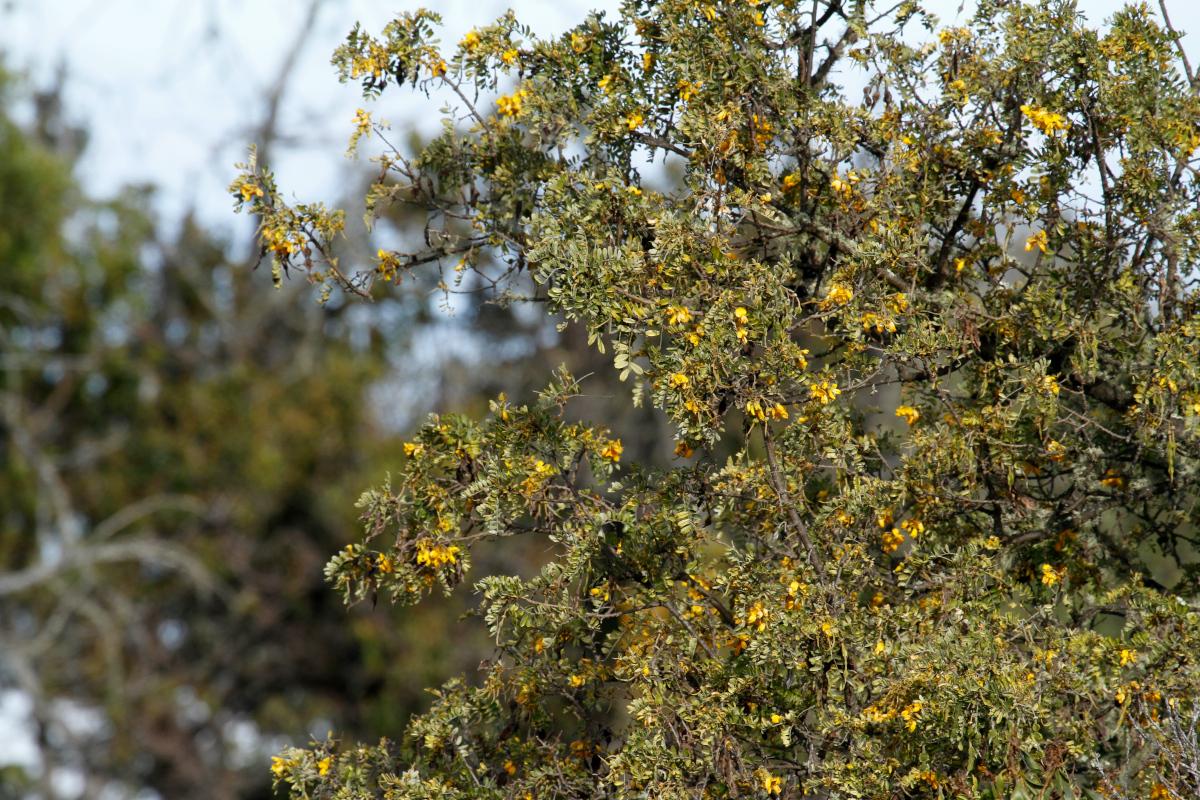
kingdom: Plantae
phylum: Tracheophyta
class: Magnoliopsida
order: Fabales
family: Fabaceae
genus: Sophora
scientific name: Sophora chrysophylla
